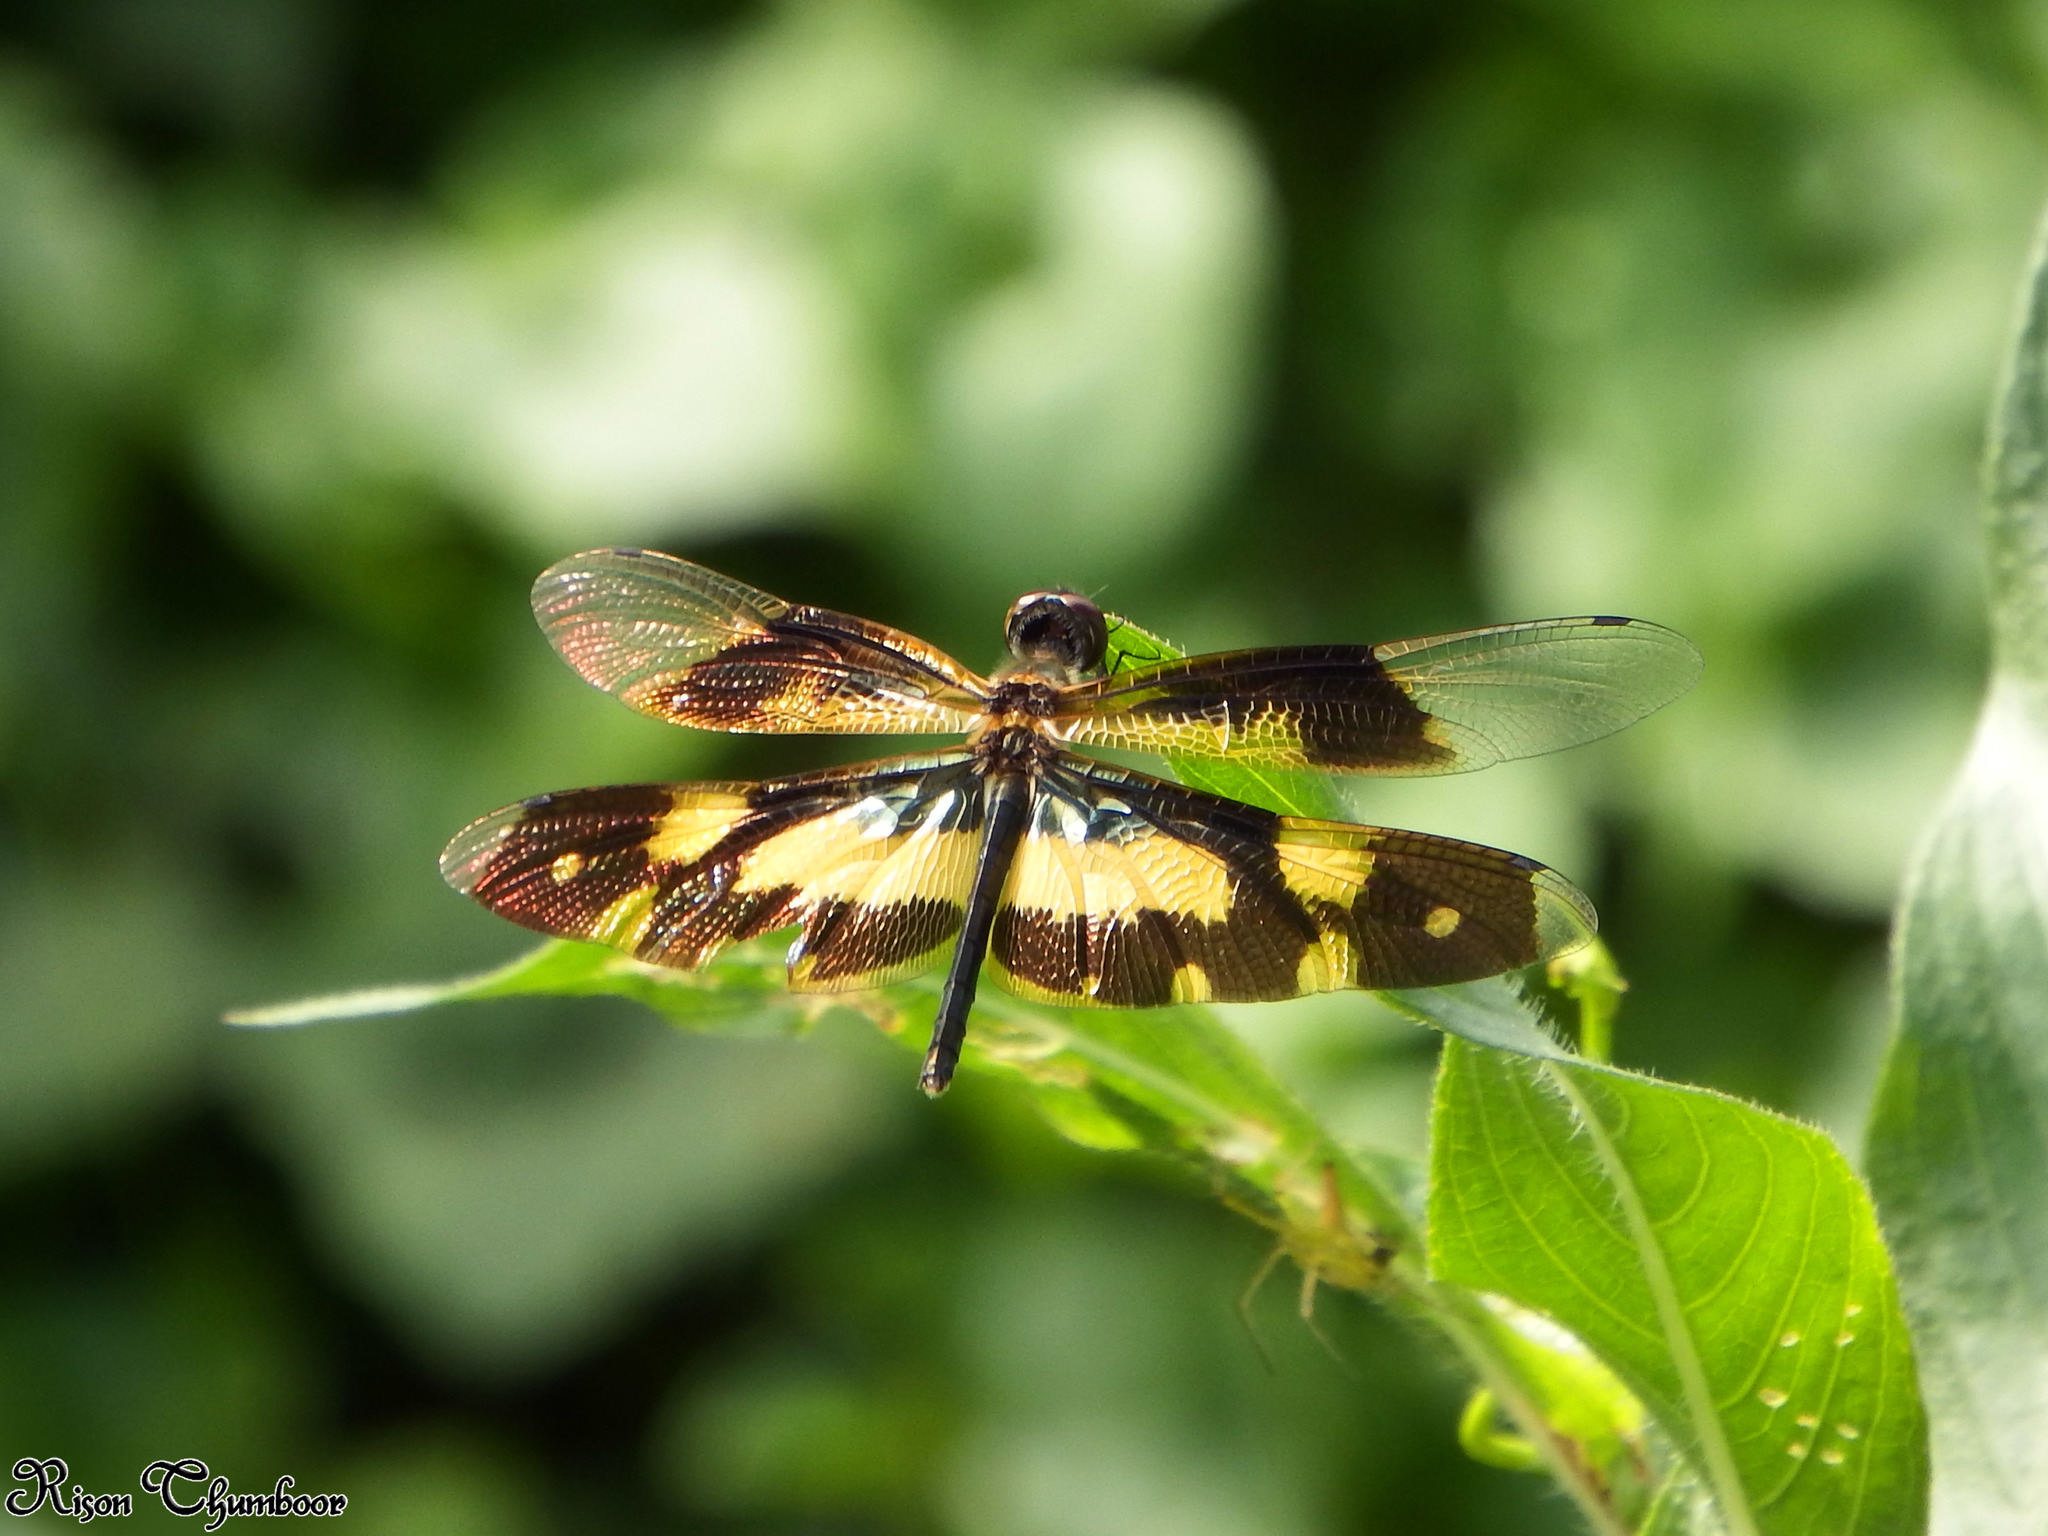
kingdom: Animalia
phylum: Arthropoda
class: Insecta
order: Odonata
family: Libellulidae
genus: Rhyothemis
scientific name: Rhyothemis variegata
